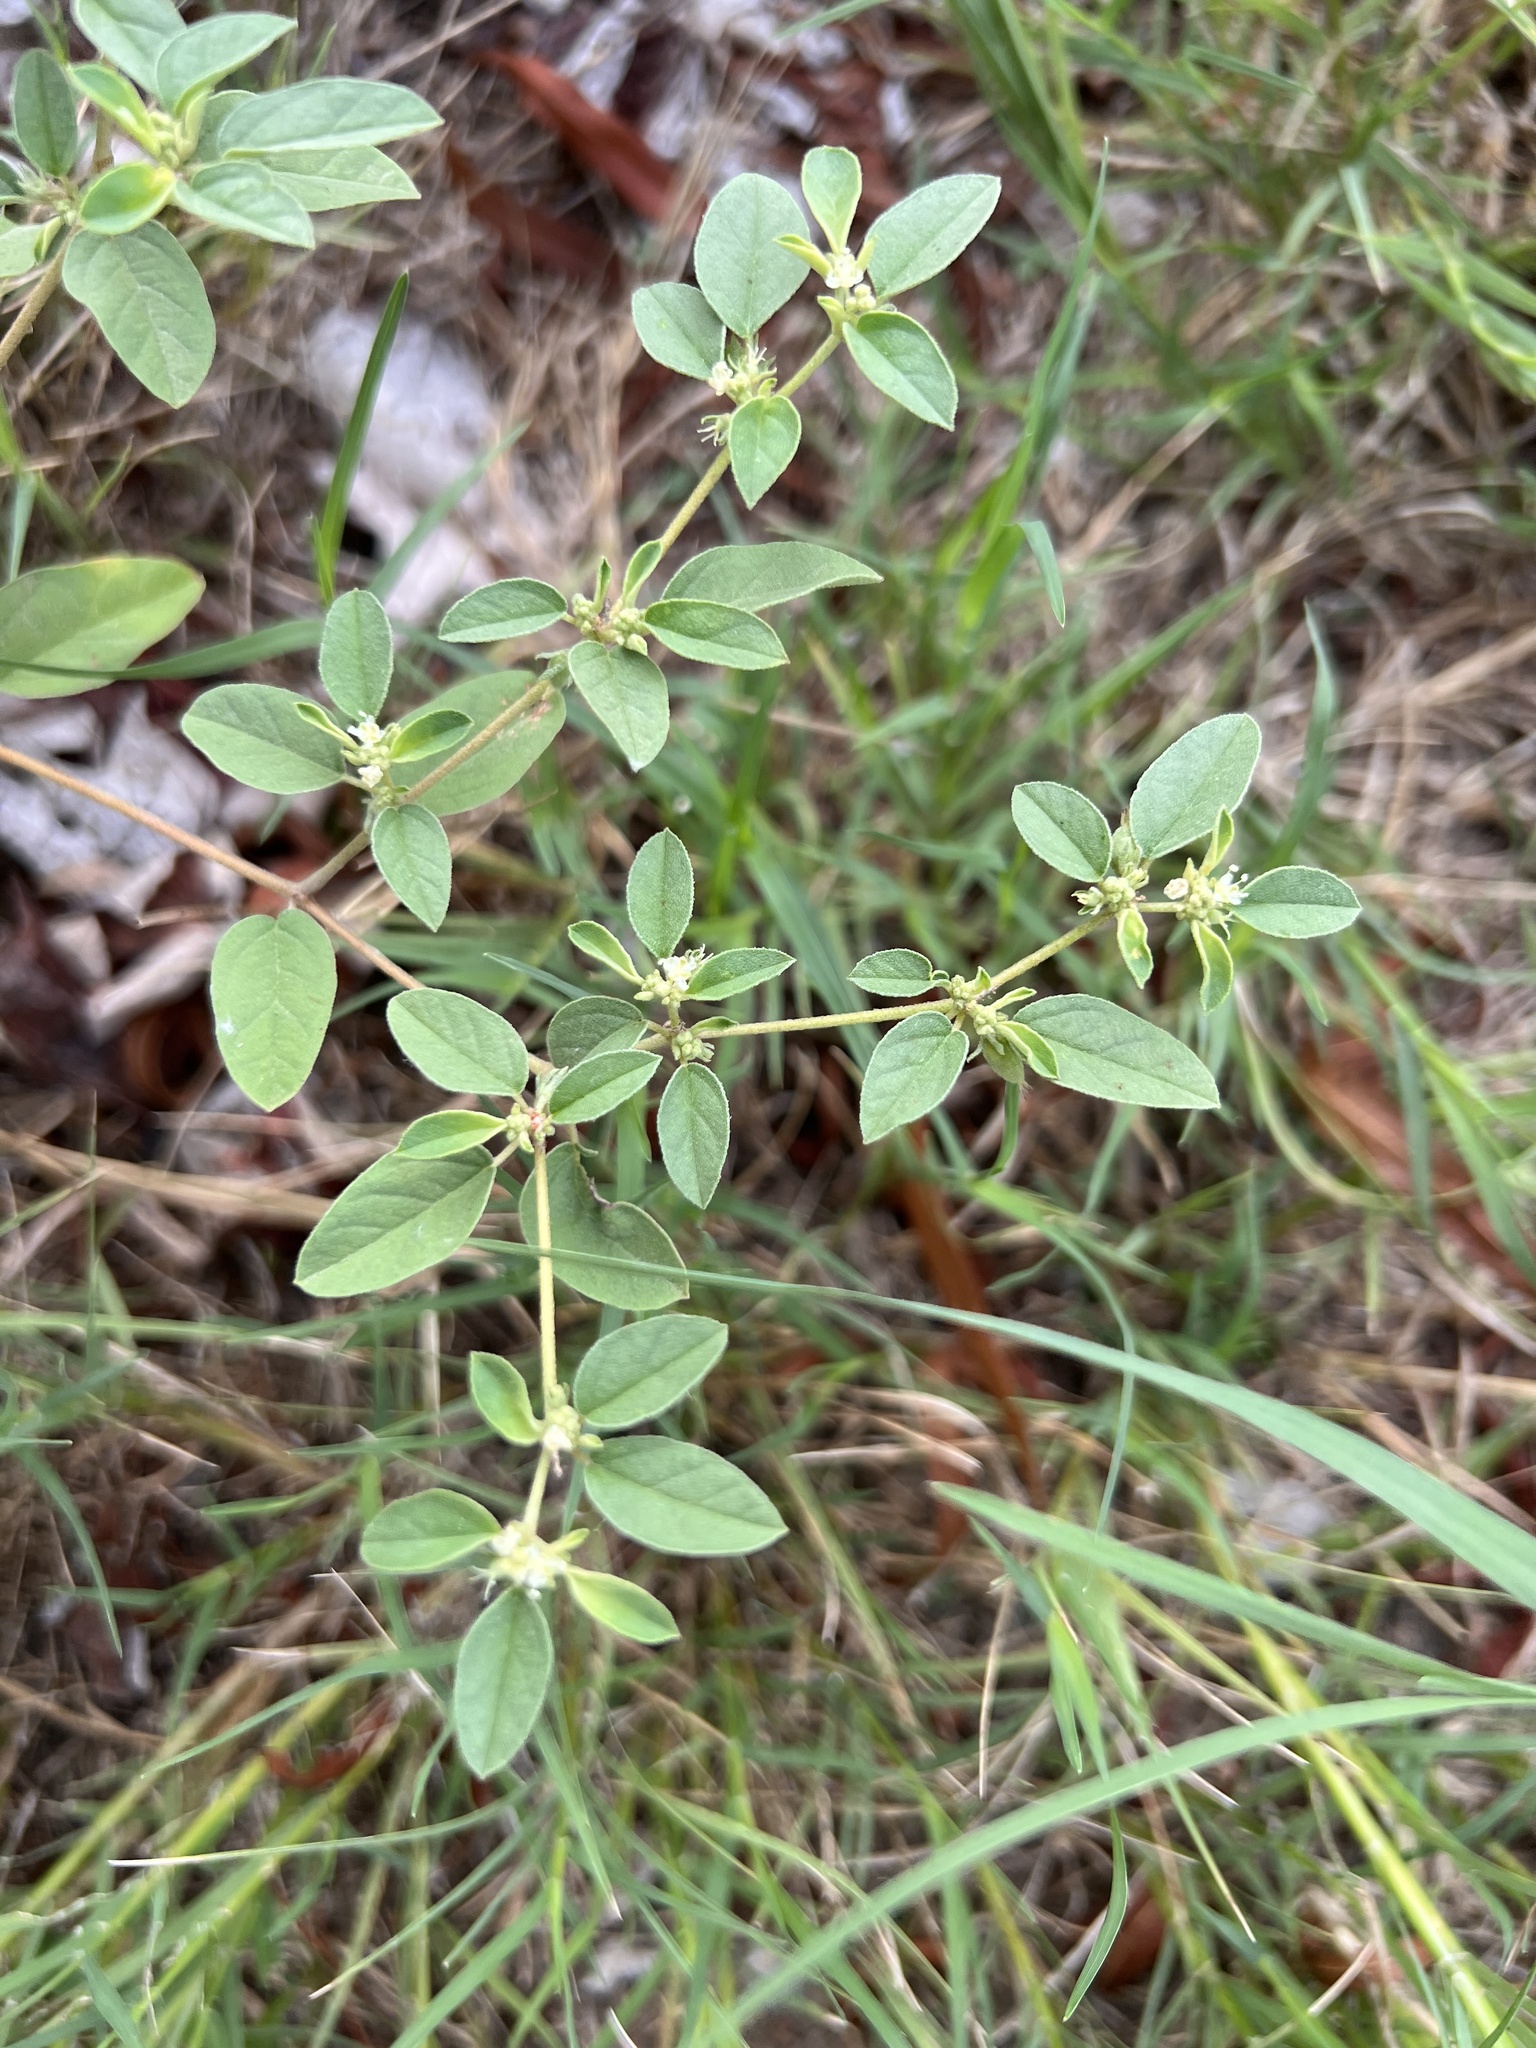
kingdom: Plantae
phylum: Tracheophyta
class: Magnoliopsida
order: Malpighiales
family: Euphorbiaceae
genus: Croton
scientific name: Croton monanthogynus
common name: One-seed croton
